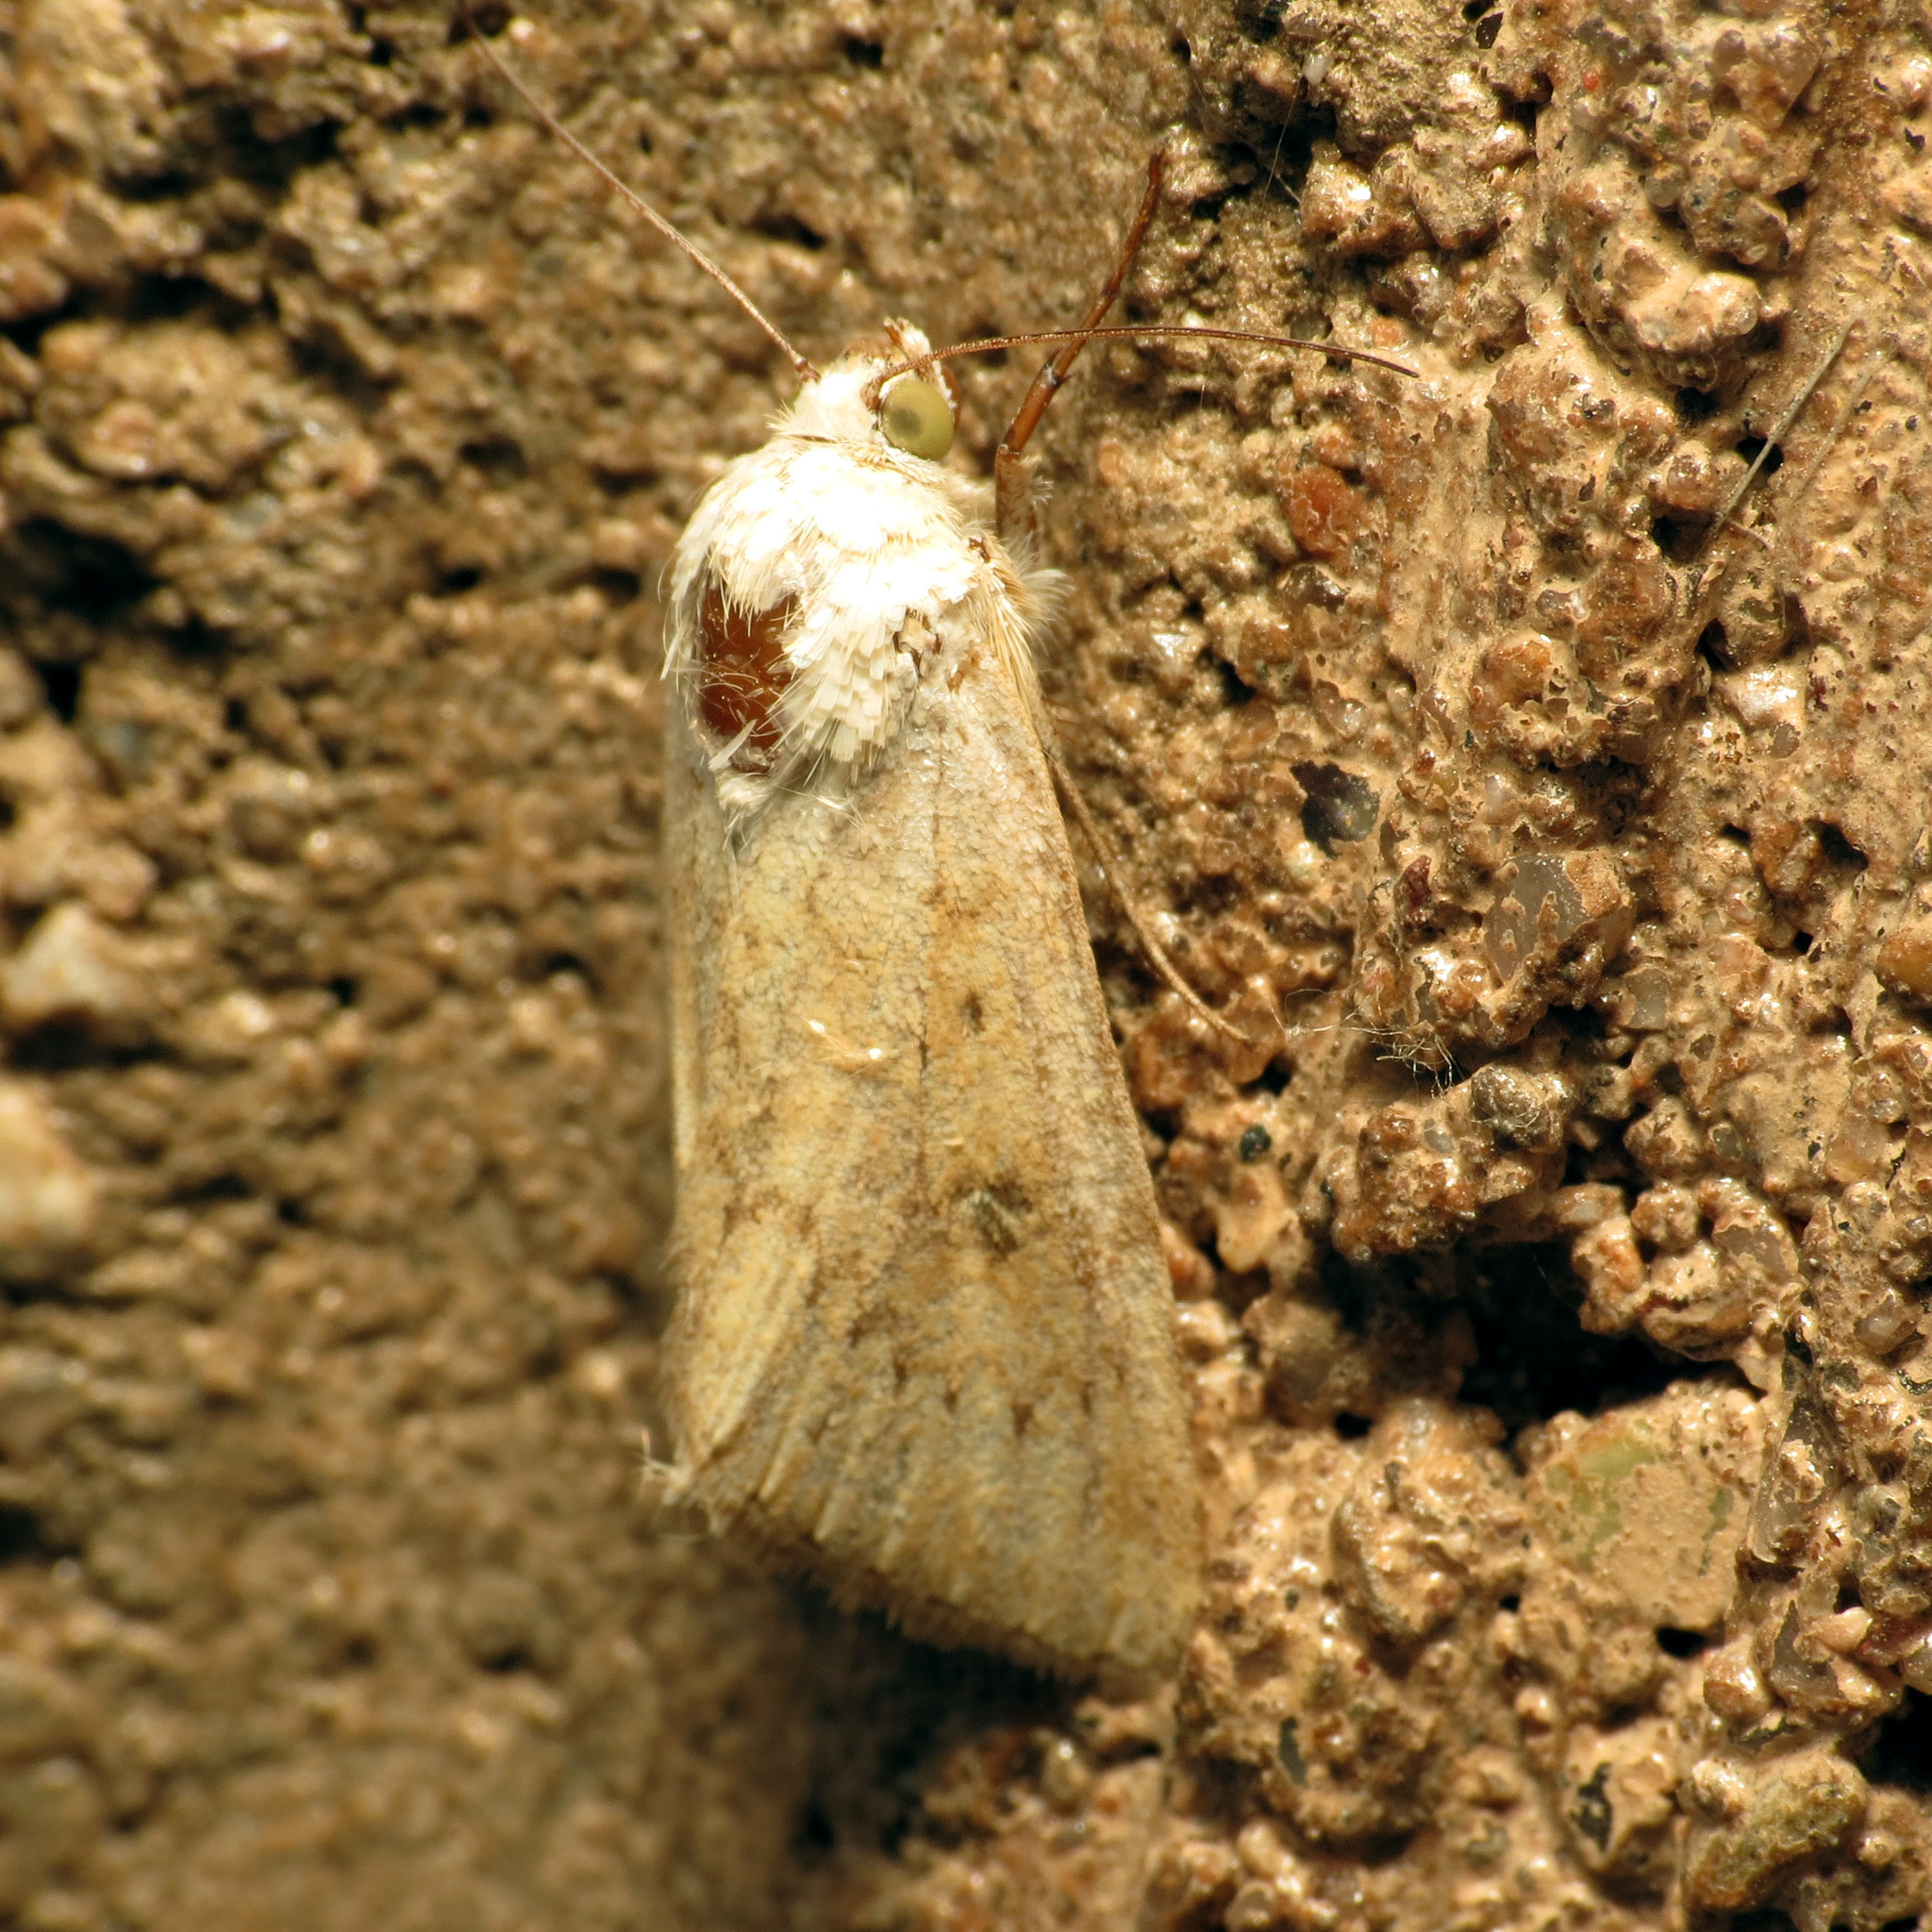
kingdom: Animalia
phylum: Arthropoda
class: Insecta
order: Lepidoptera
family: Noctuidae
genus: Helicoverpa
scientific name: Helicoverpa zea
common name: Bollworm
